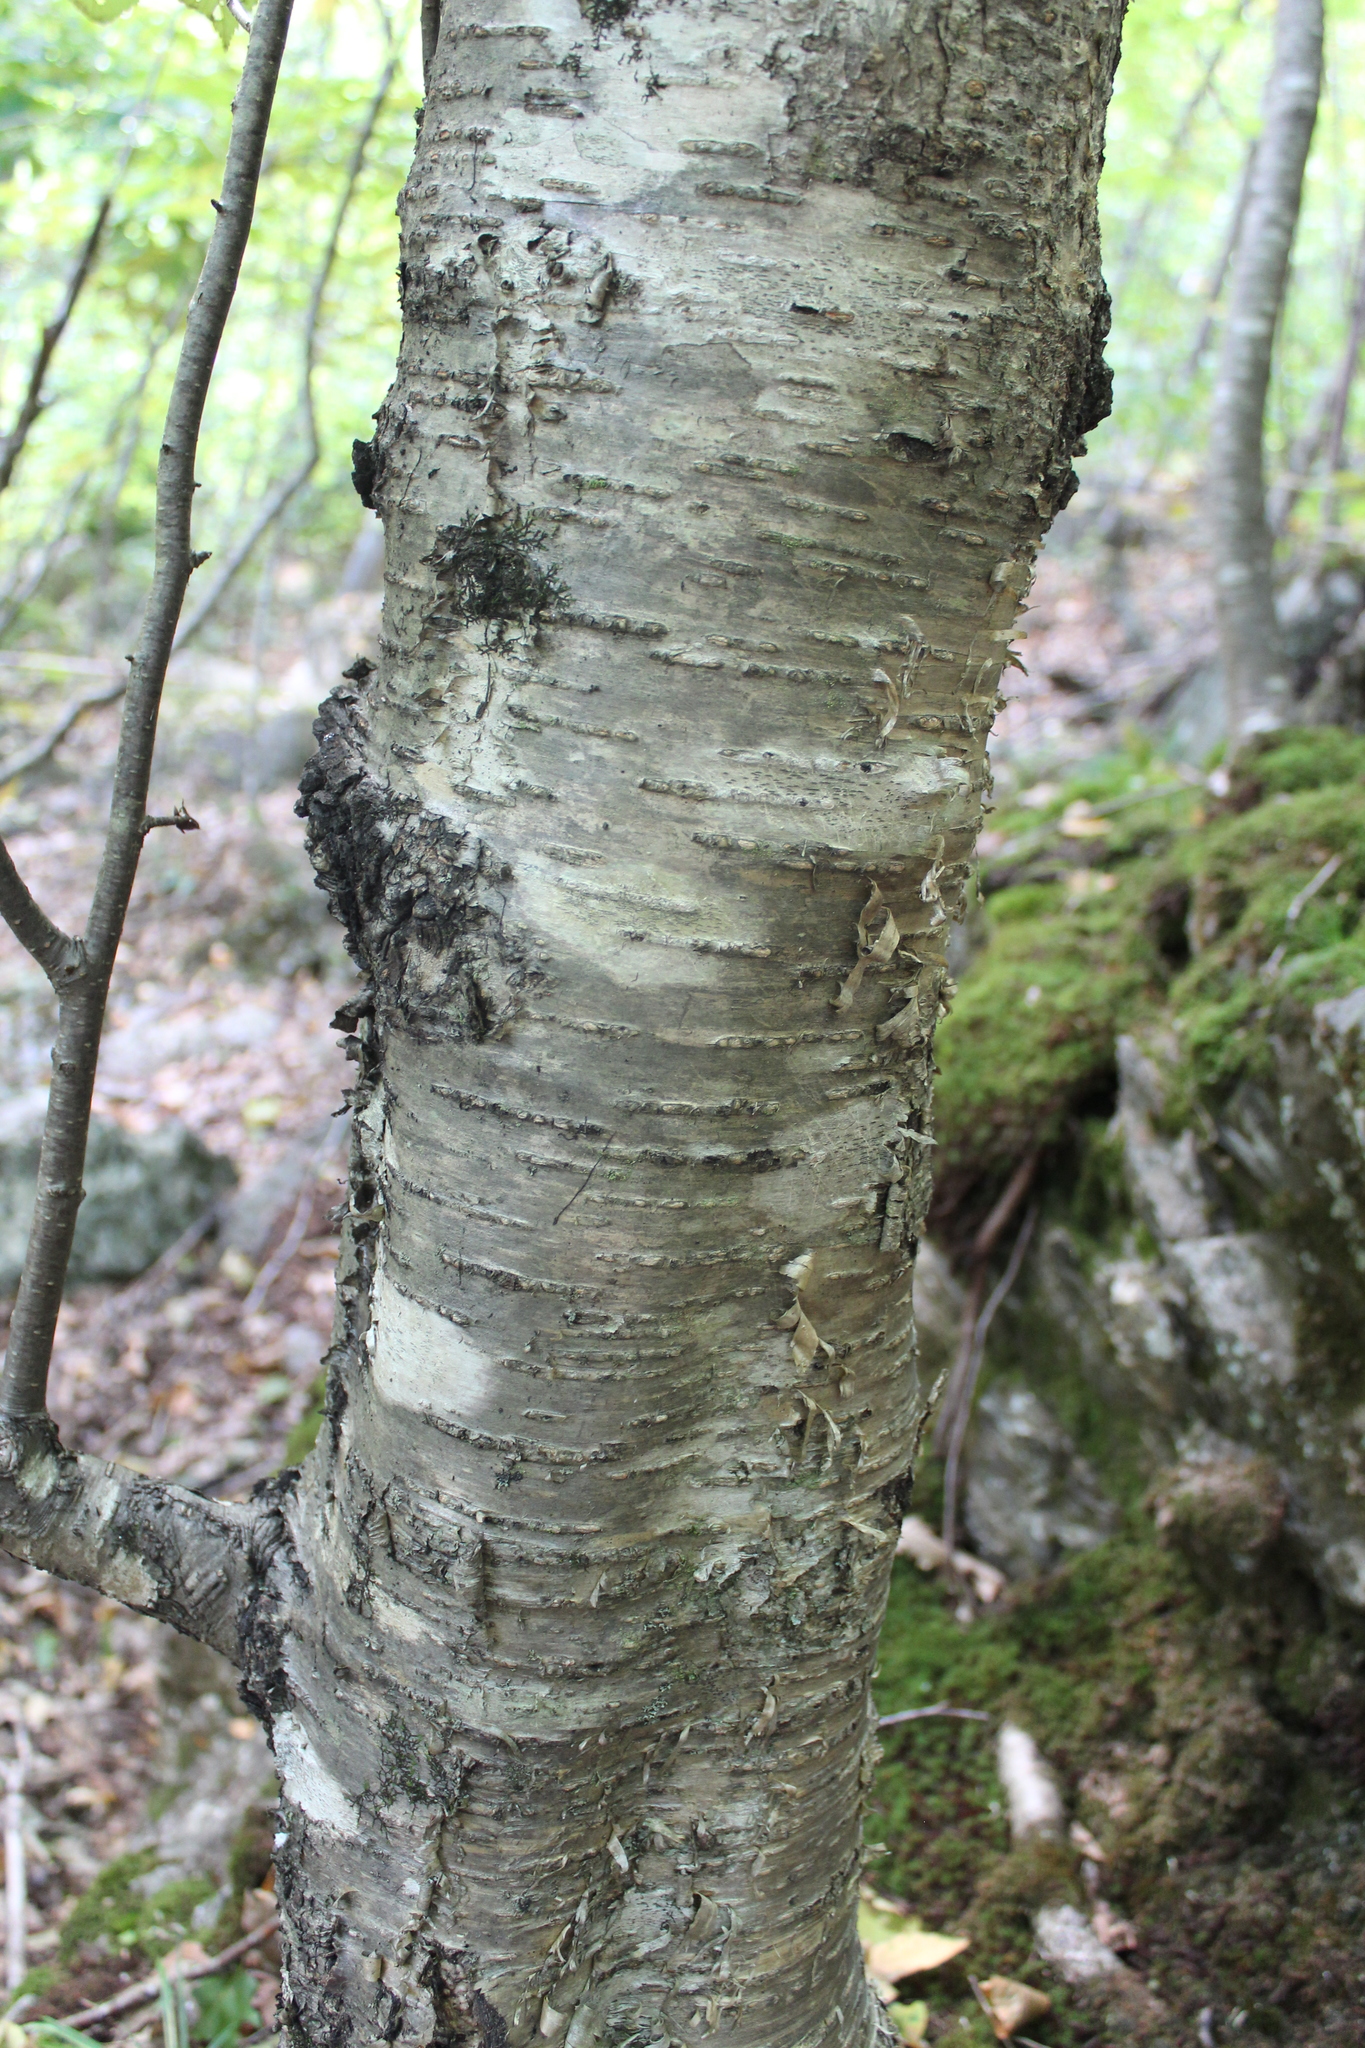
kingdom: Plantae
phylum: Tracheophyta
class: Magnoliopsida
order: Fagales
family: Betulaceae
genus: Betula
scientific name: Betula alleghaniensis
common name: Yellow birch
